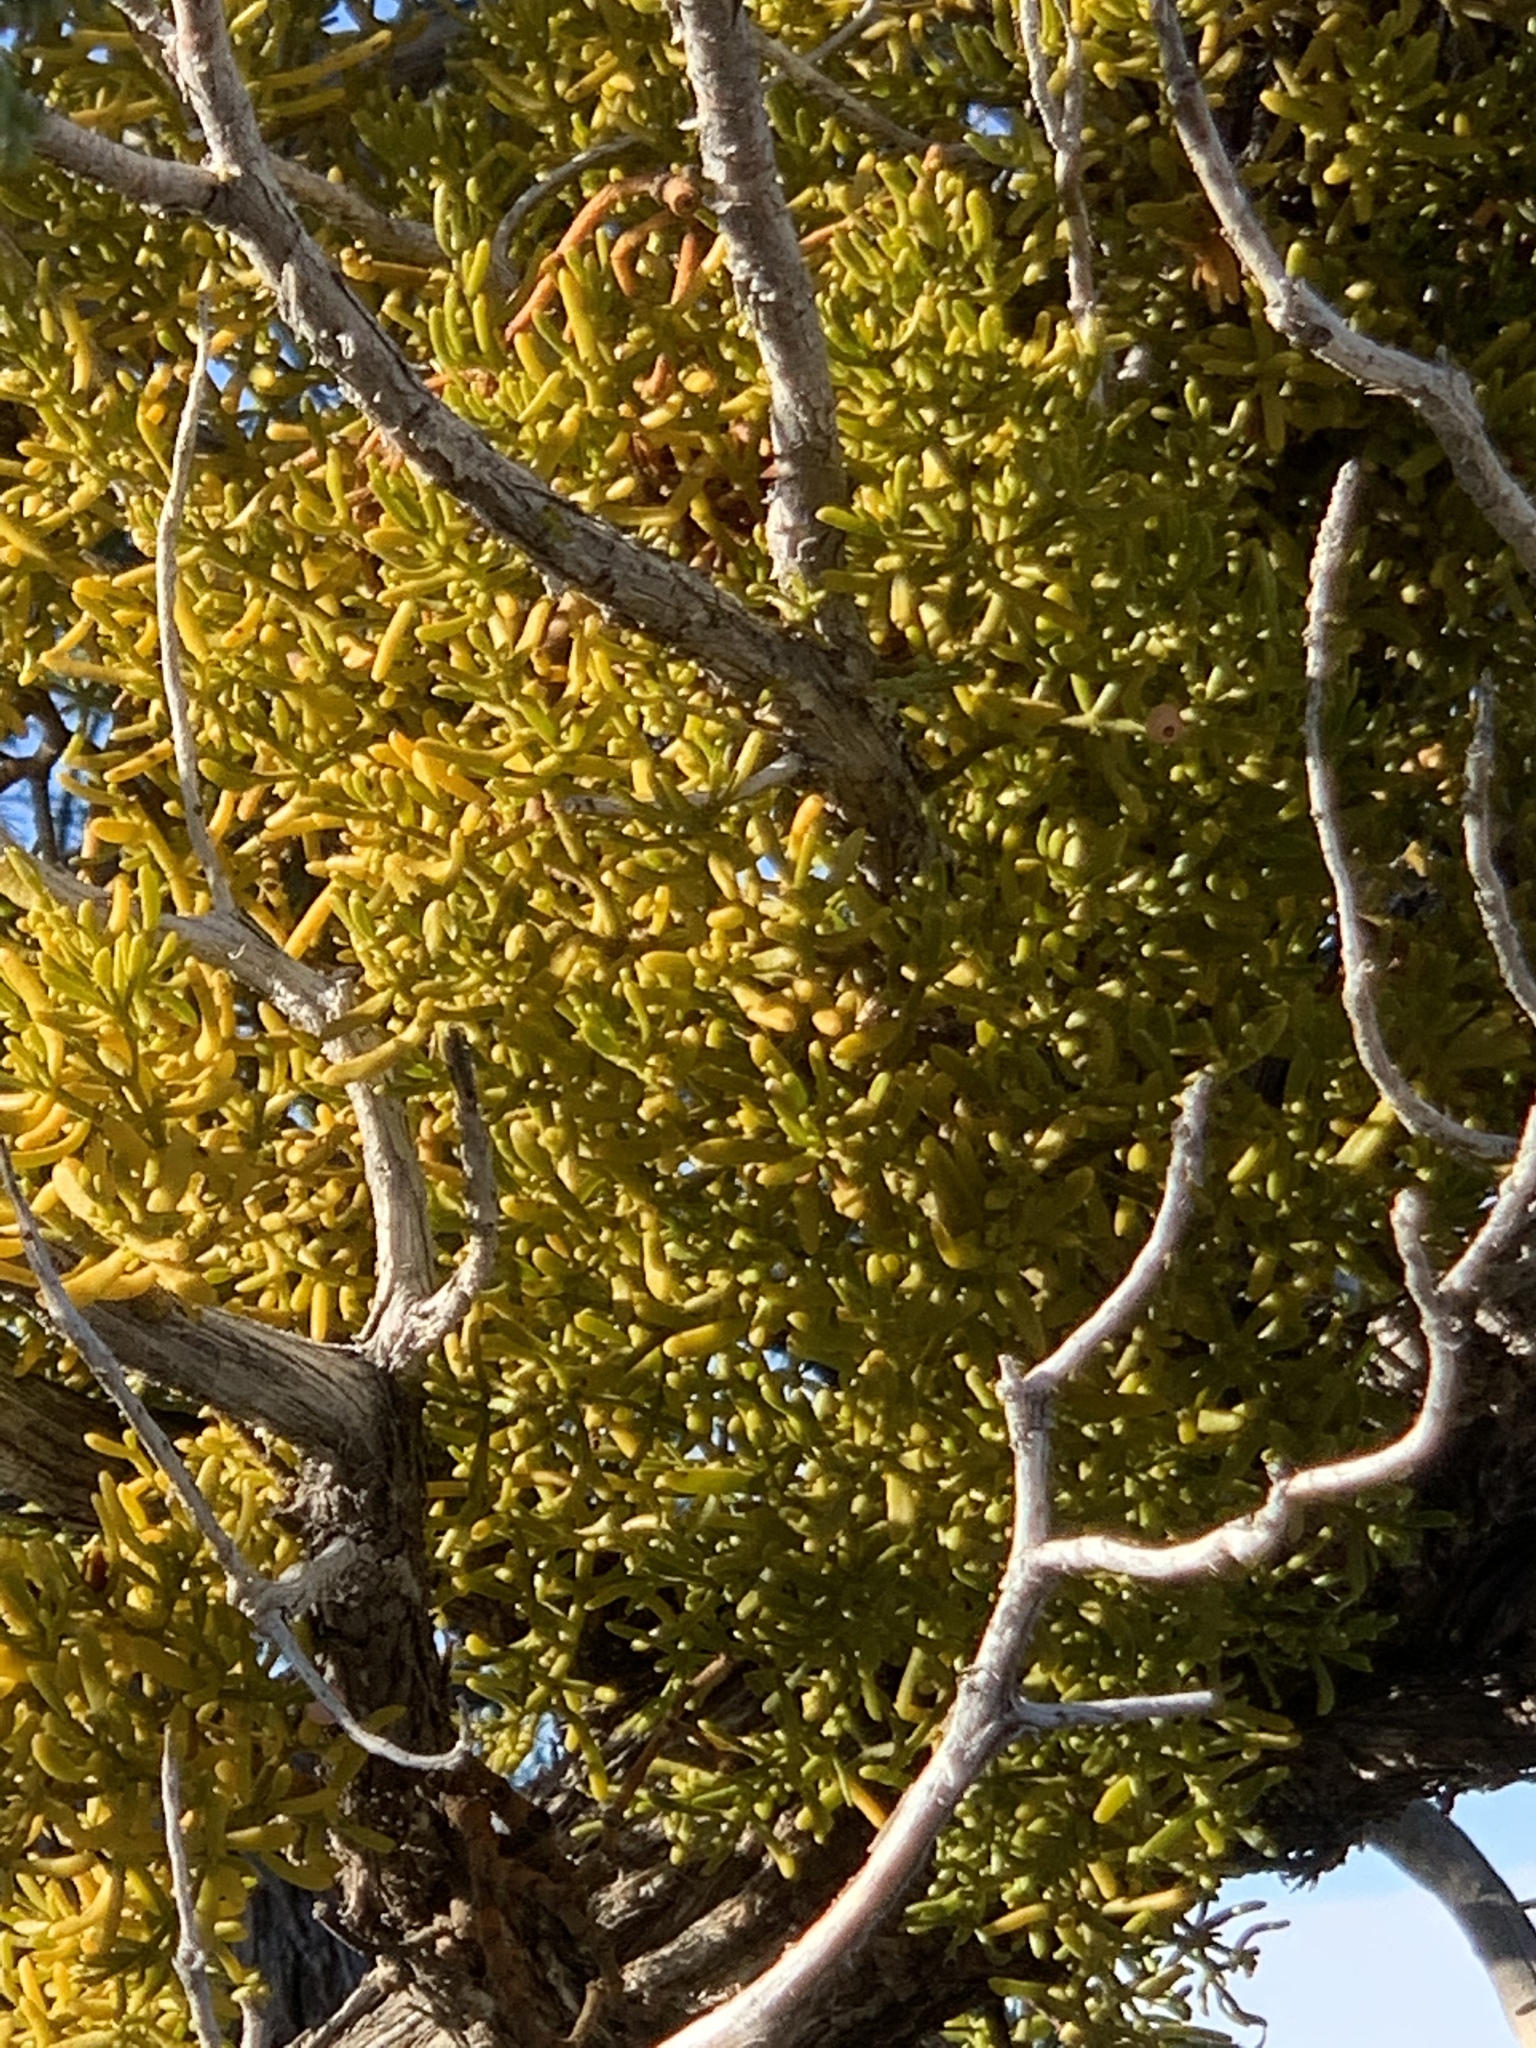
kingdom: Plantae
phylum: Tracheophyta
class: Magnoliopsida
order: Santalales
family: Viscaceae
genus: Phoradendron
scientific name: Phoradendron hawksworthii
